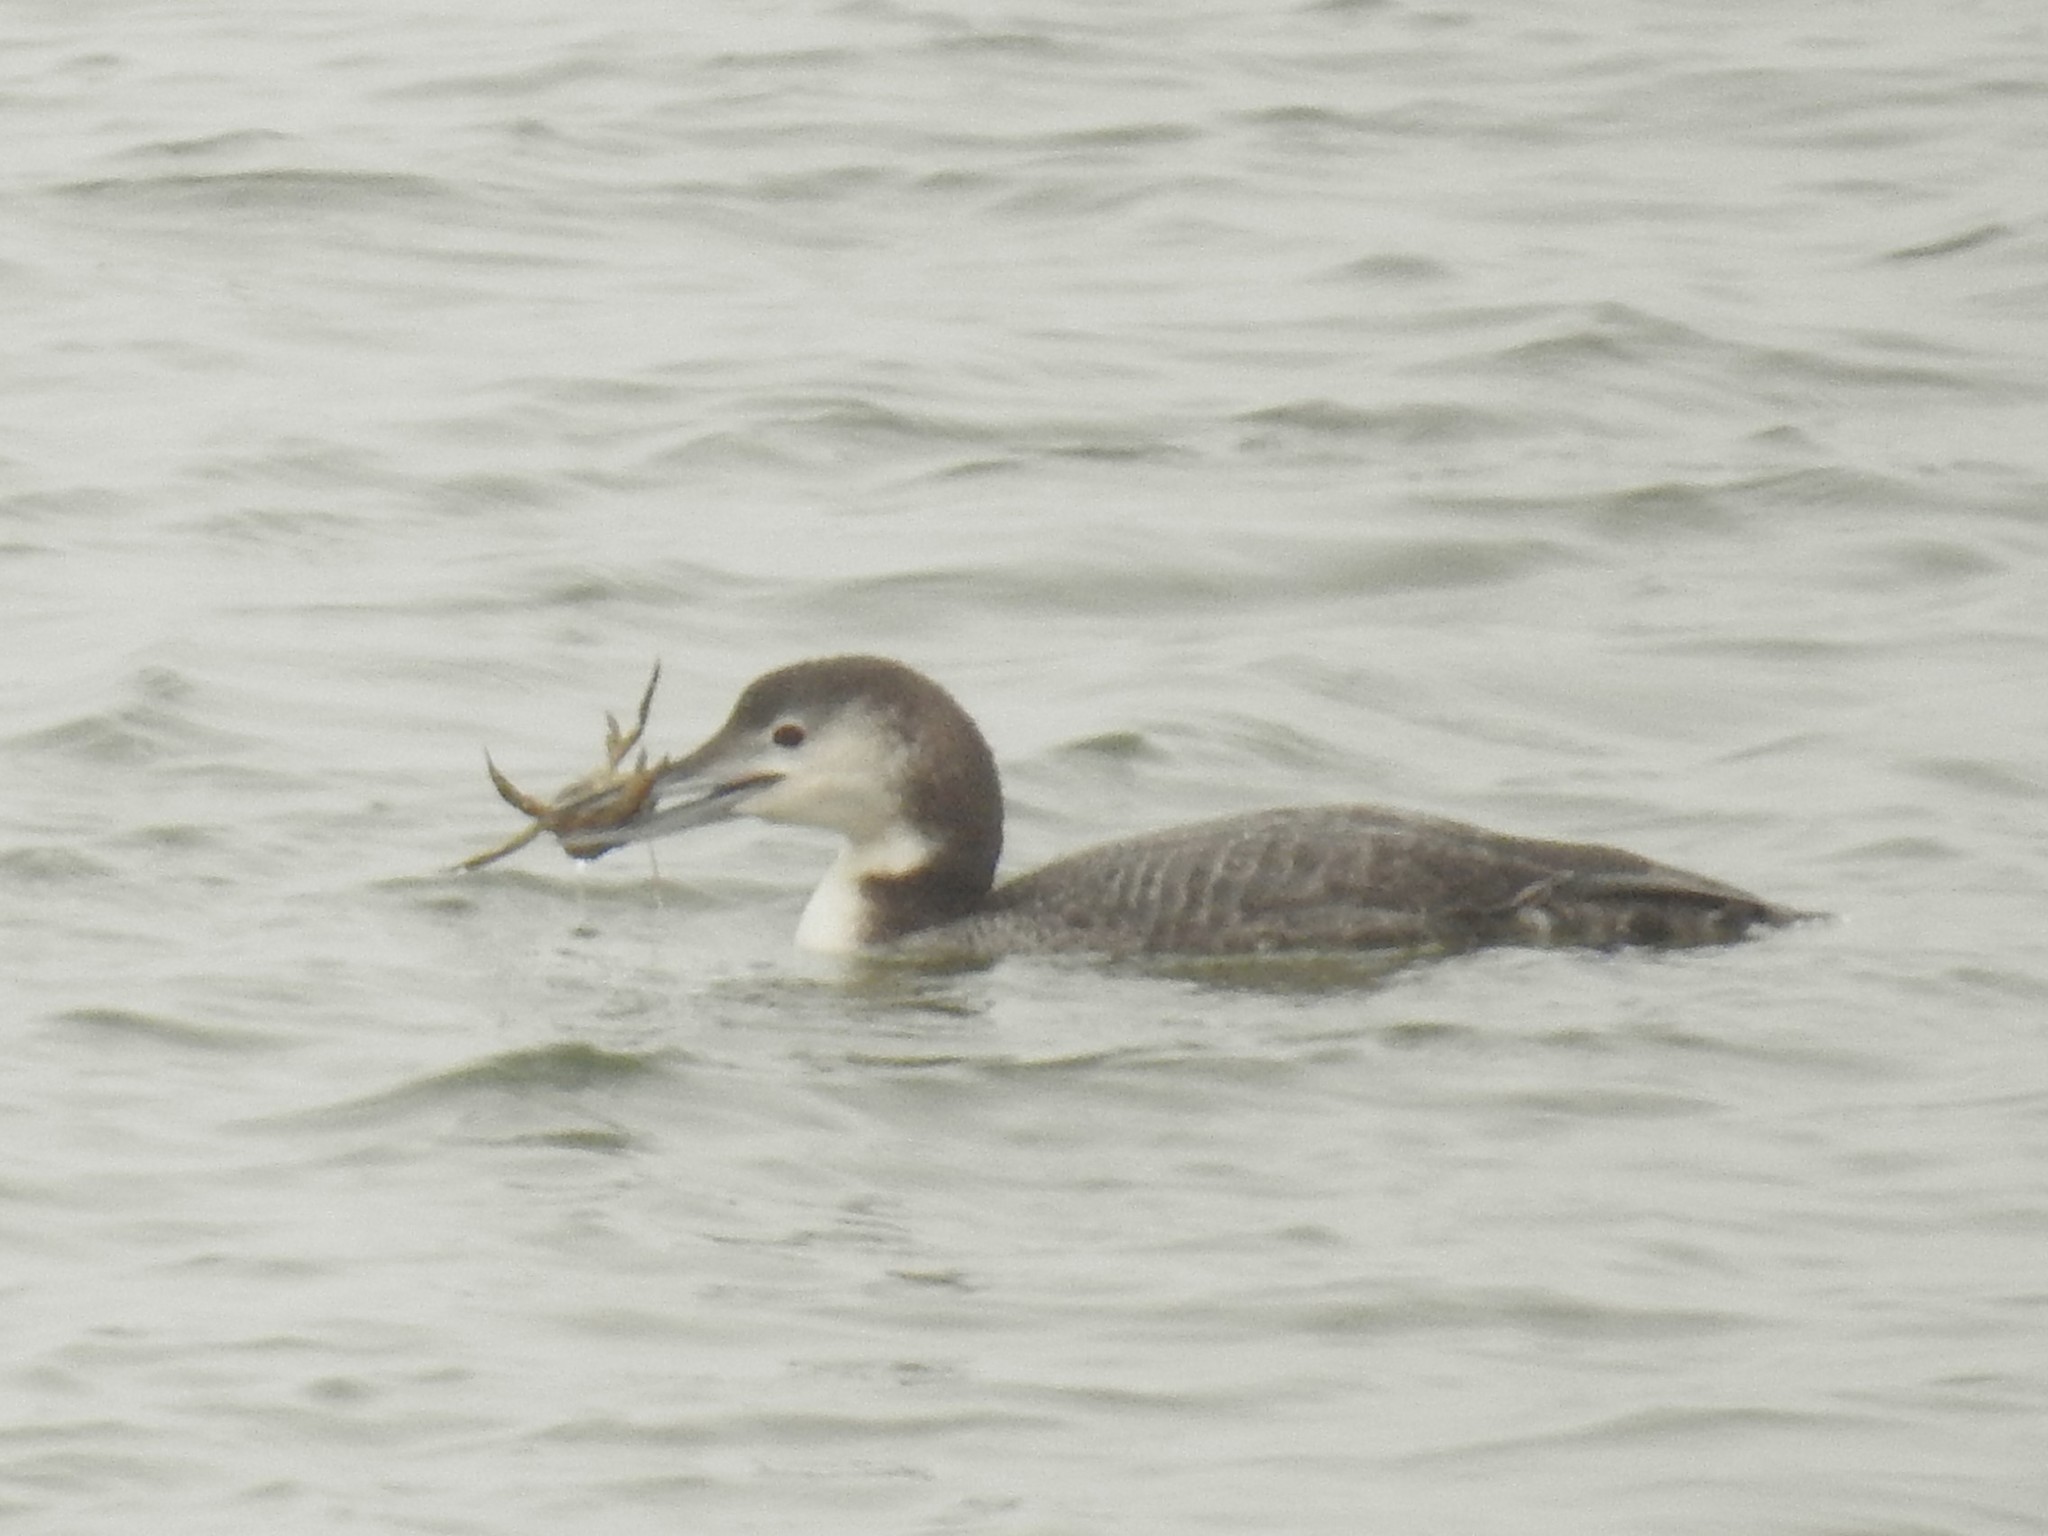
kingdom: Animalia
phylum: Chordata
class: Aves
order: Gaviiformes
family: Gaviidae
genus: Gavia
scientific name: Gavia immer
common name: Common loon
